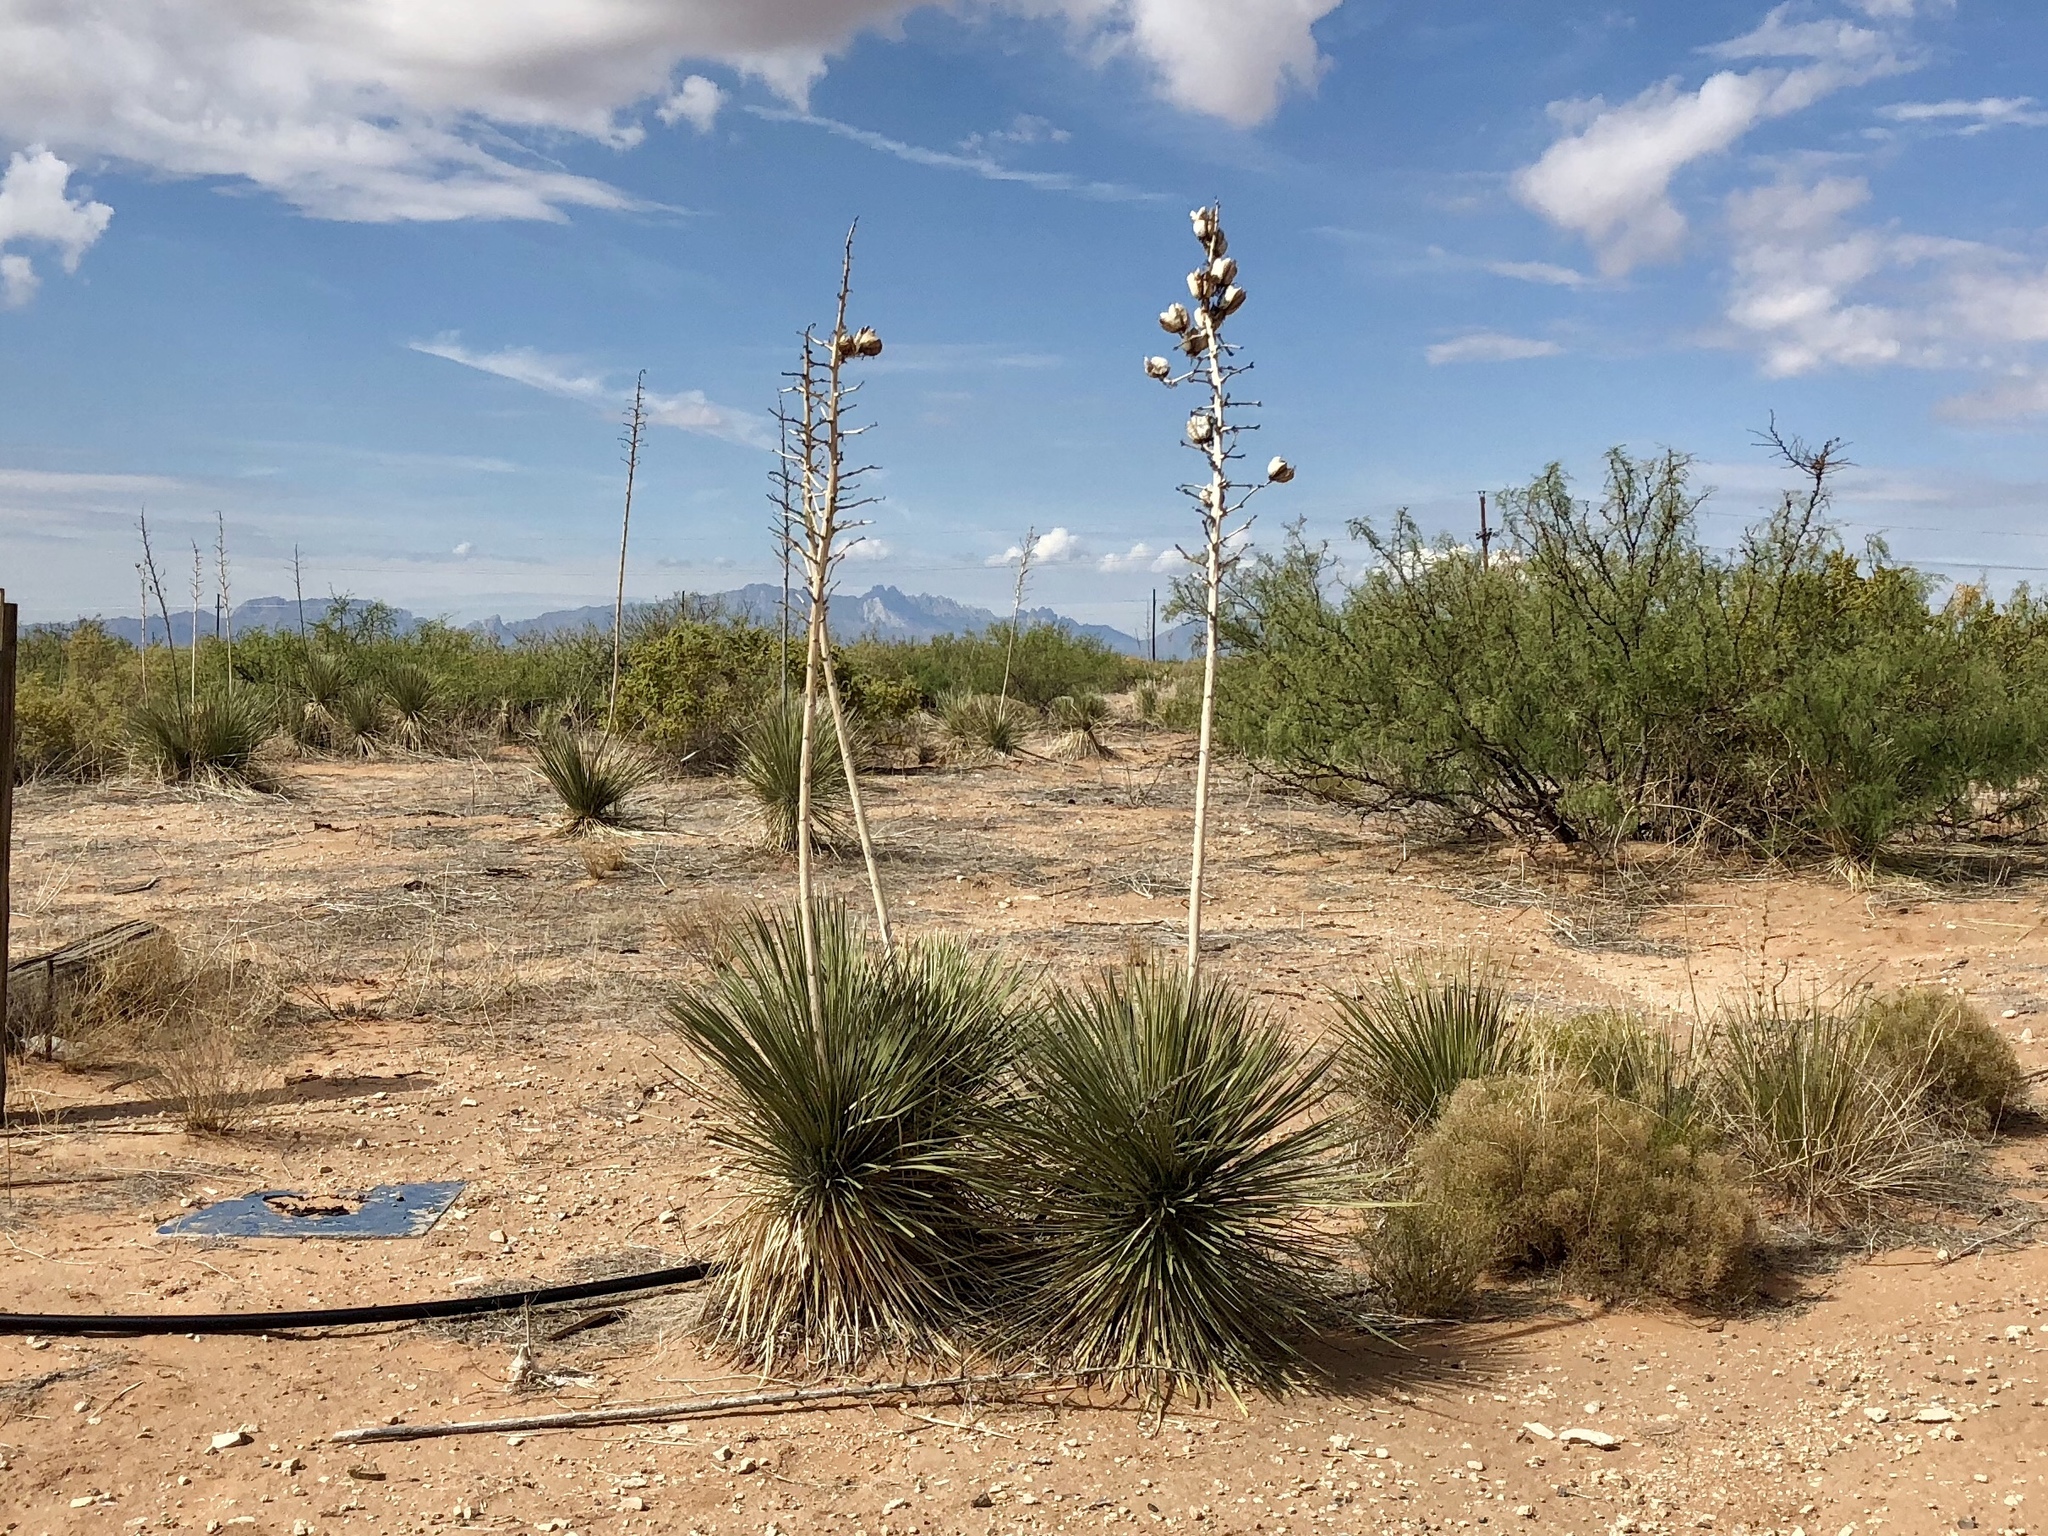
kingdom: Plantae
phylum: Tracheophyta
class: Liliopsida
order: Asparagales
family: Asparagaceae
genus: Yucca
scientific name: Yucca elata
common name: Palmella
